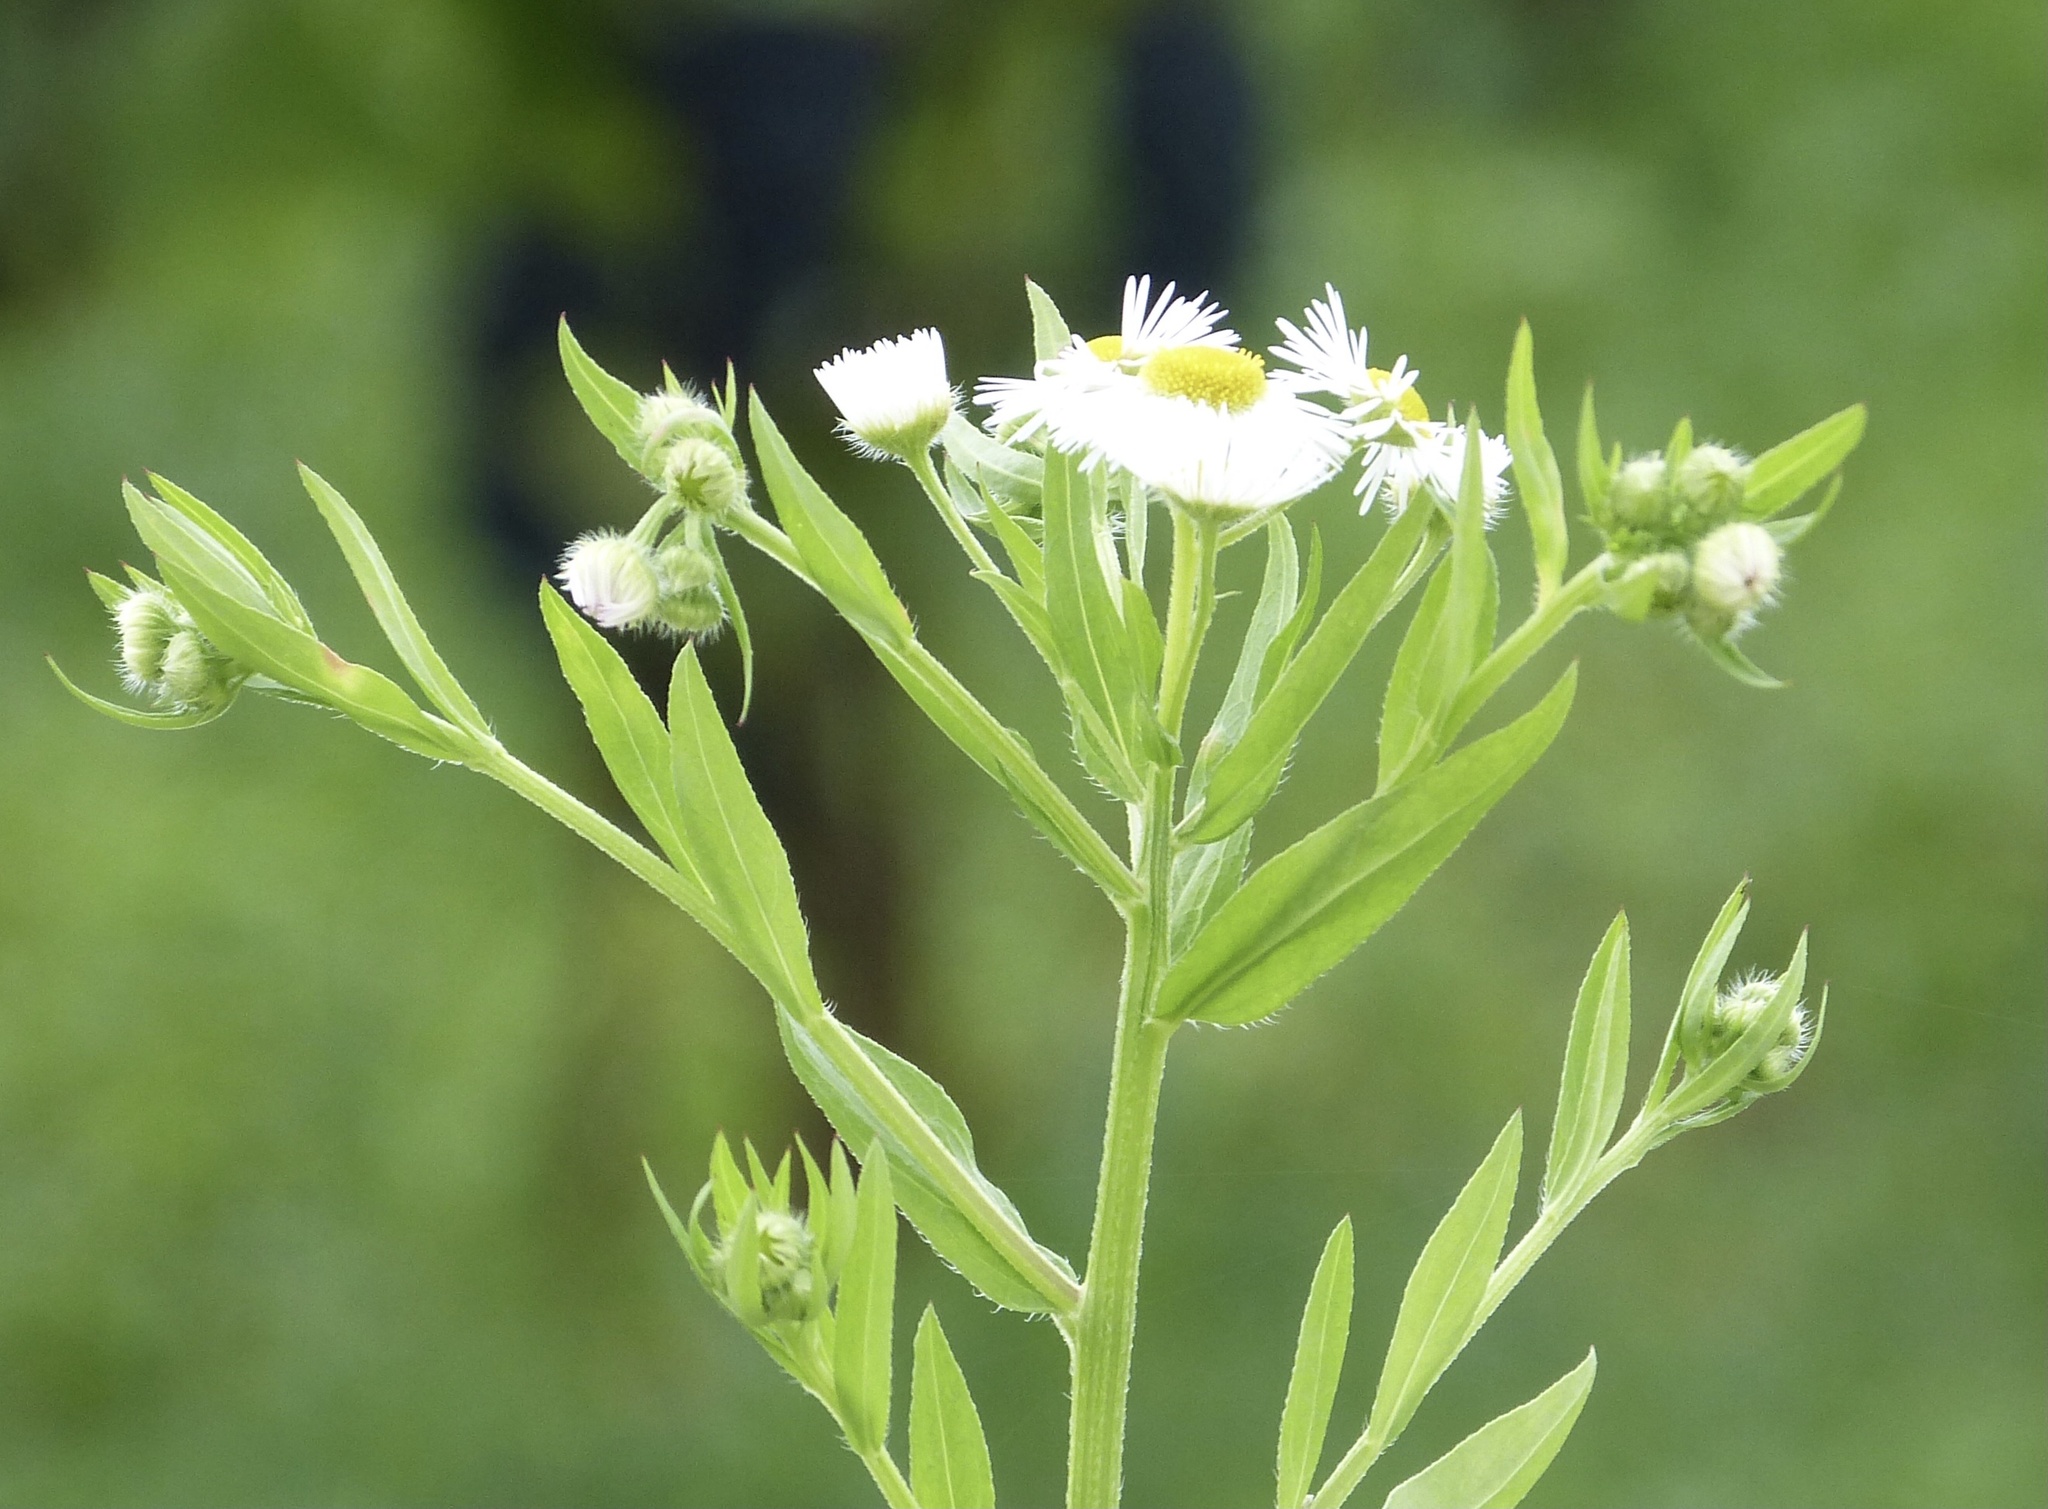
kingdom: Plantae
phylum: Tracheophyta
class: Magnoliopsida
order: Asterales
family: Asteraceae
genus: Erigeron
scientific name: Erigeron annuus
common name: Tall fleabane
